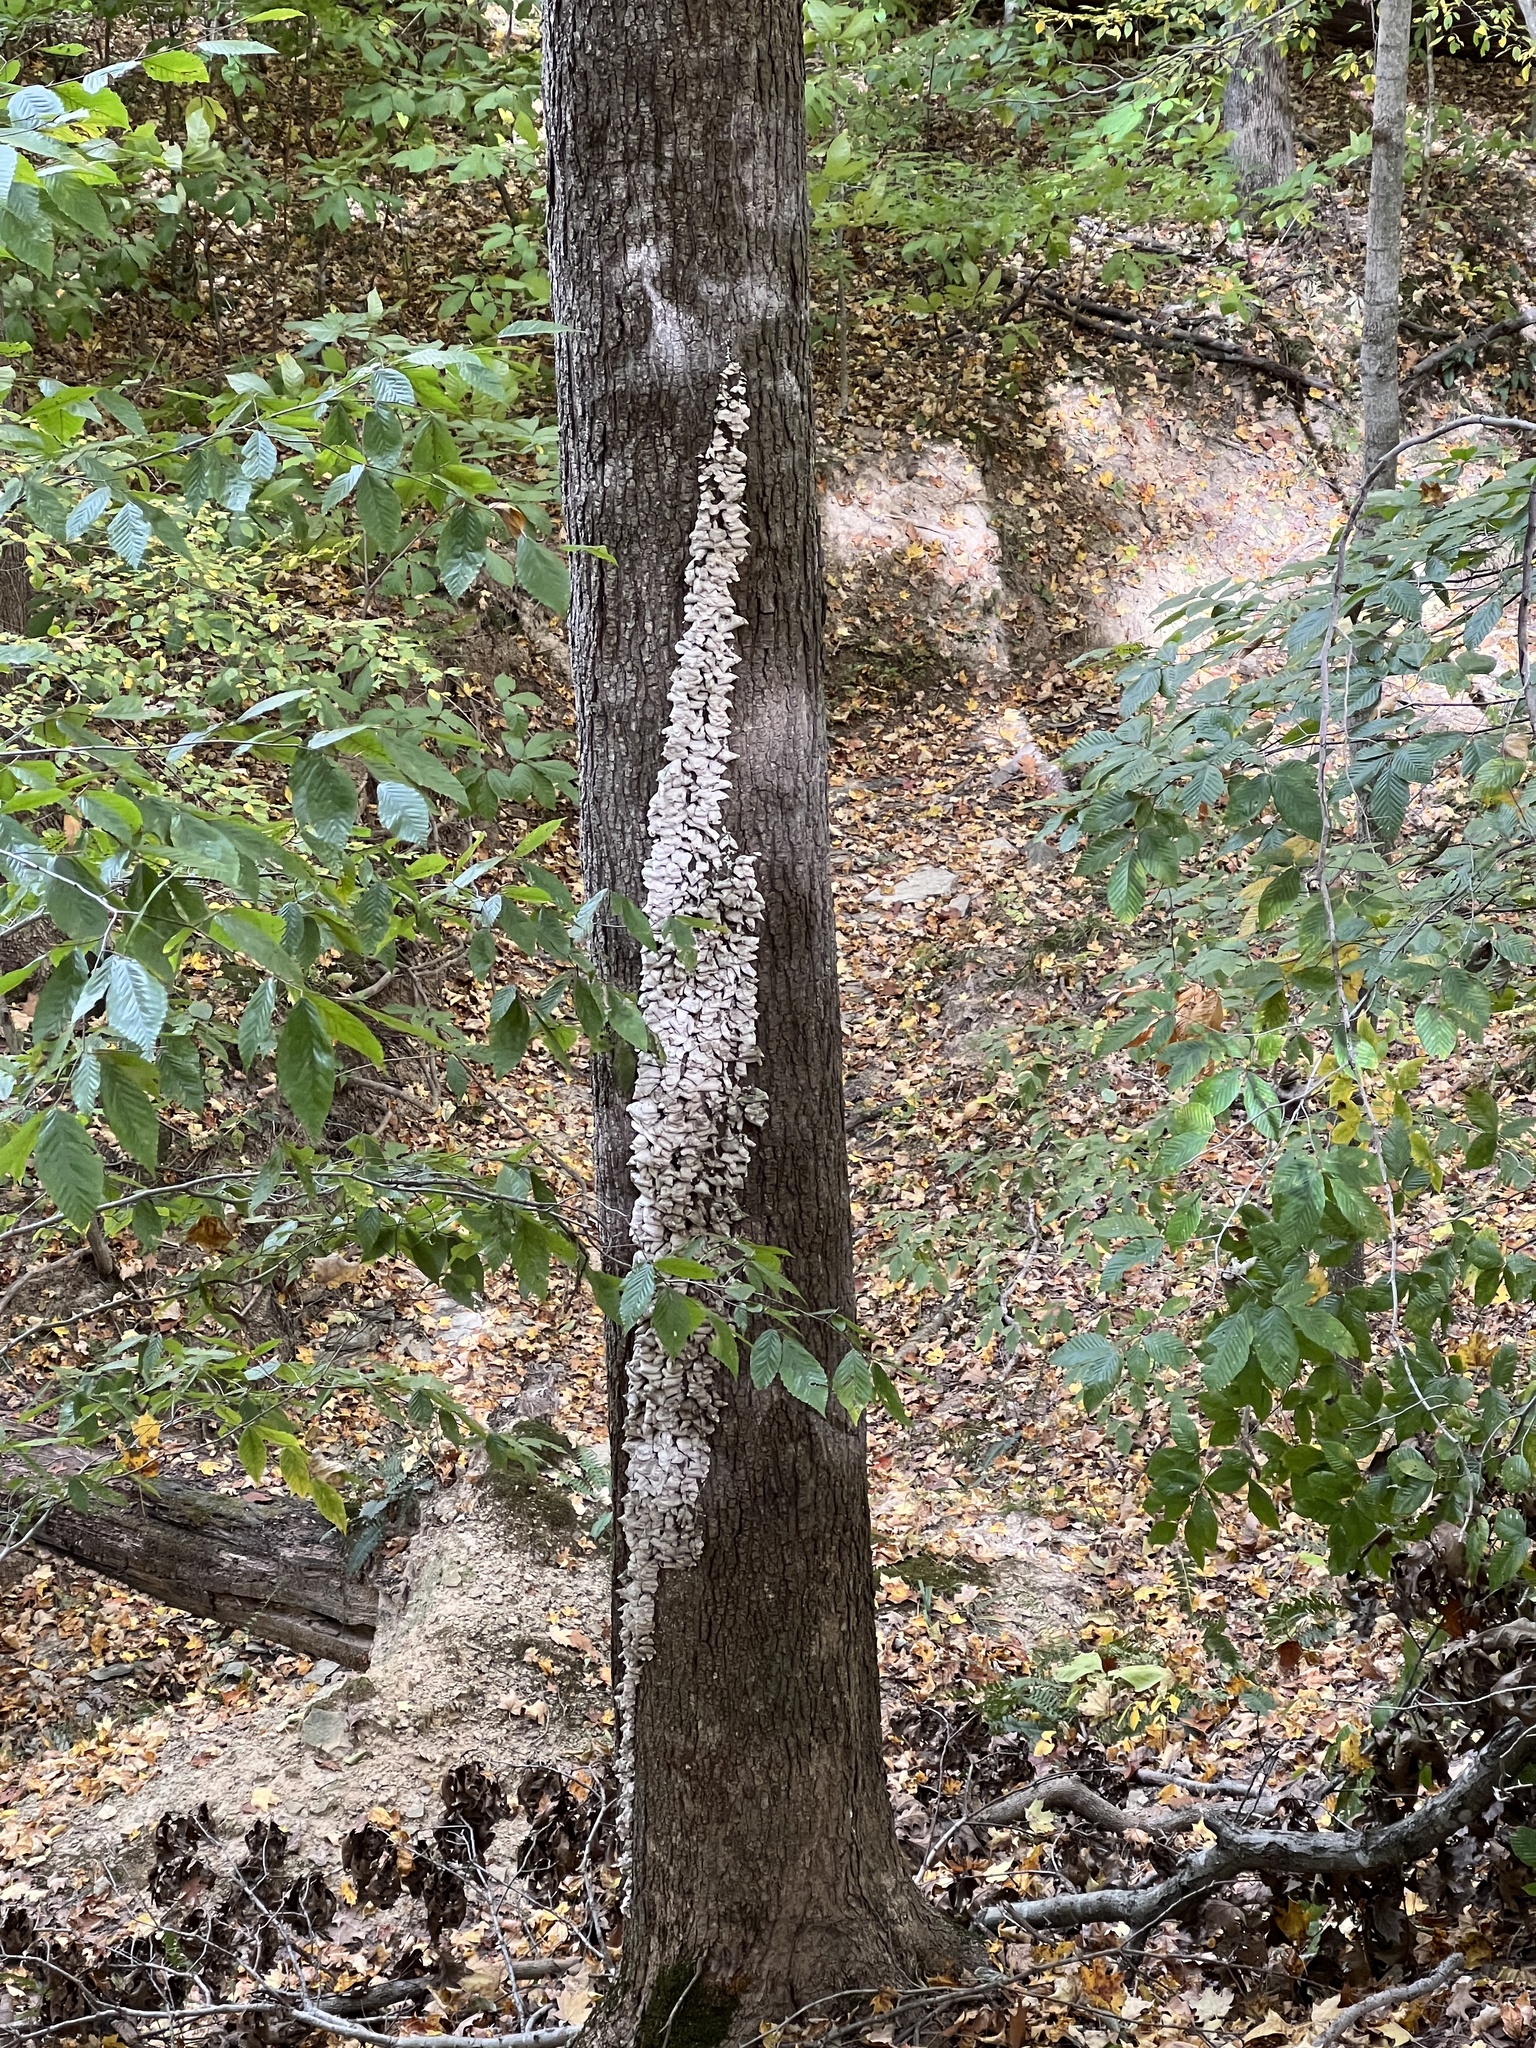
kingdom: Fungi
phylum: Basidiomycota
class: Agaricomycetes
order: Hymenochaetales
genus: Trichaptum
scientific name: Trichaptum biforme
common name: Violet-toothed polypore
